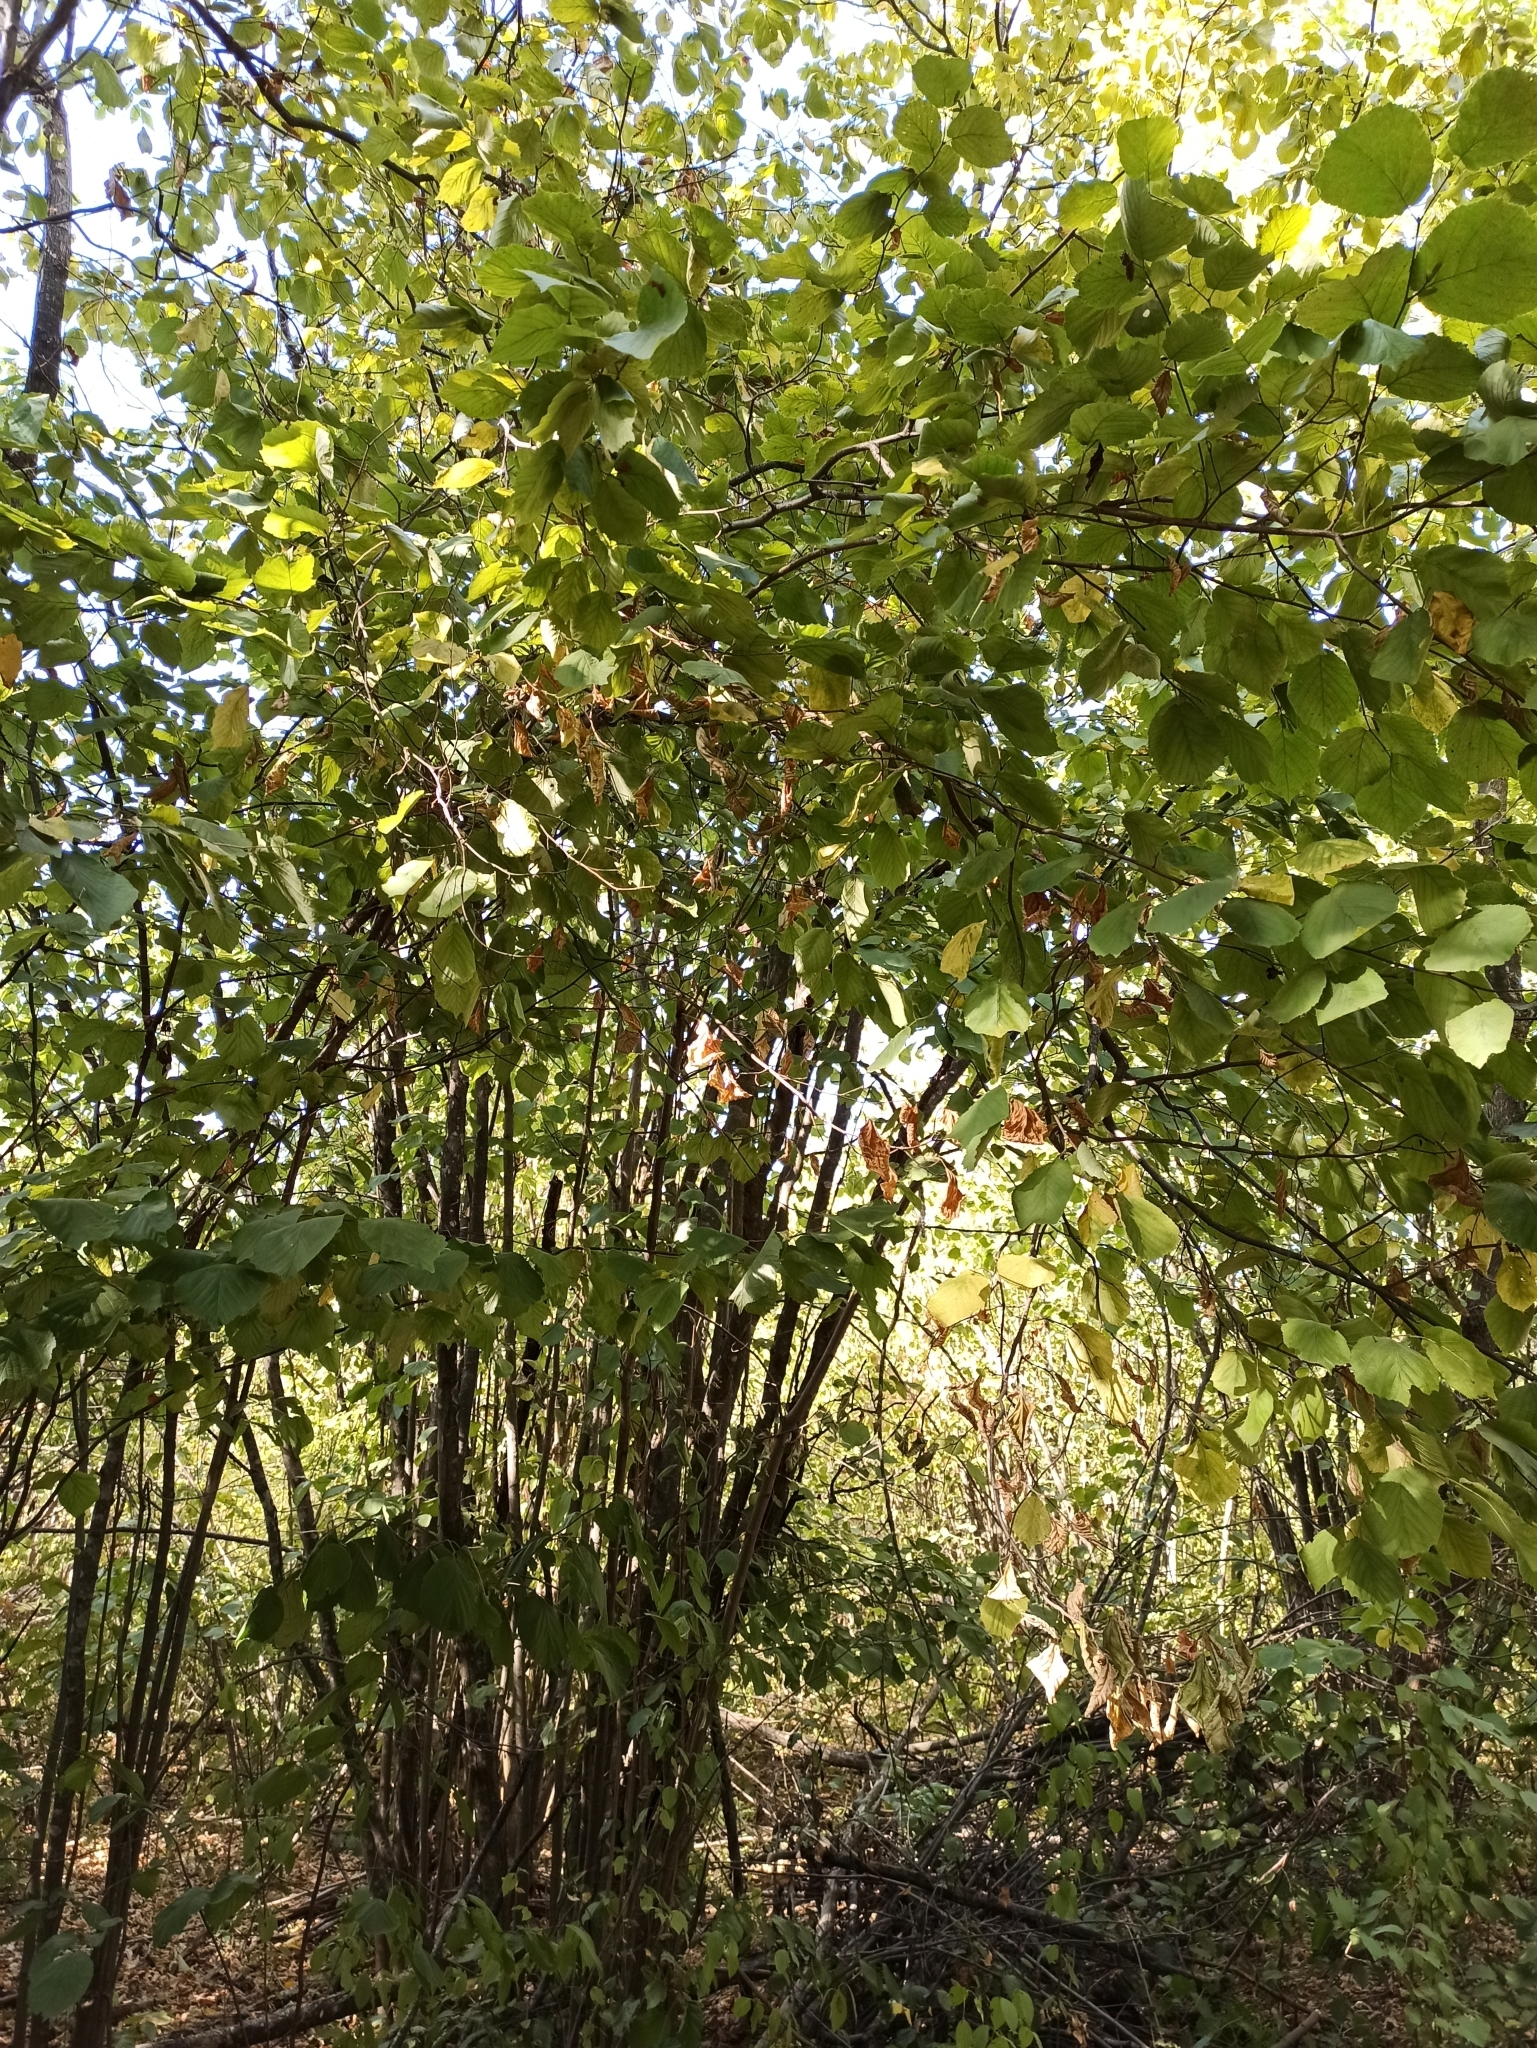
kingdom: Plantae
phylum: Tracheophyta
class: Magnoliopsida
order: Fagales
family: Betulaceae
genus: Corylus
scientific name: Corylus avellana
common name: European hazel
